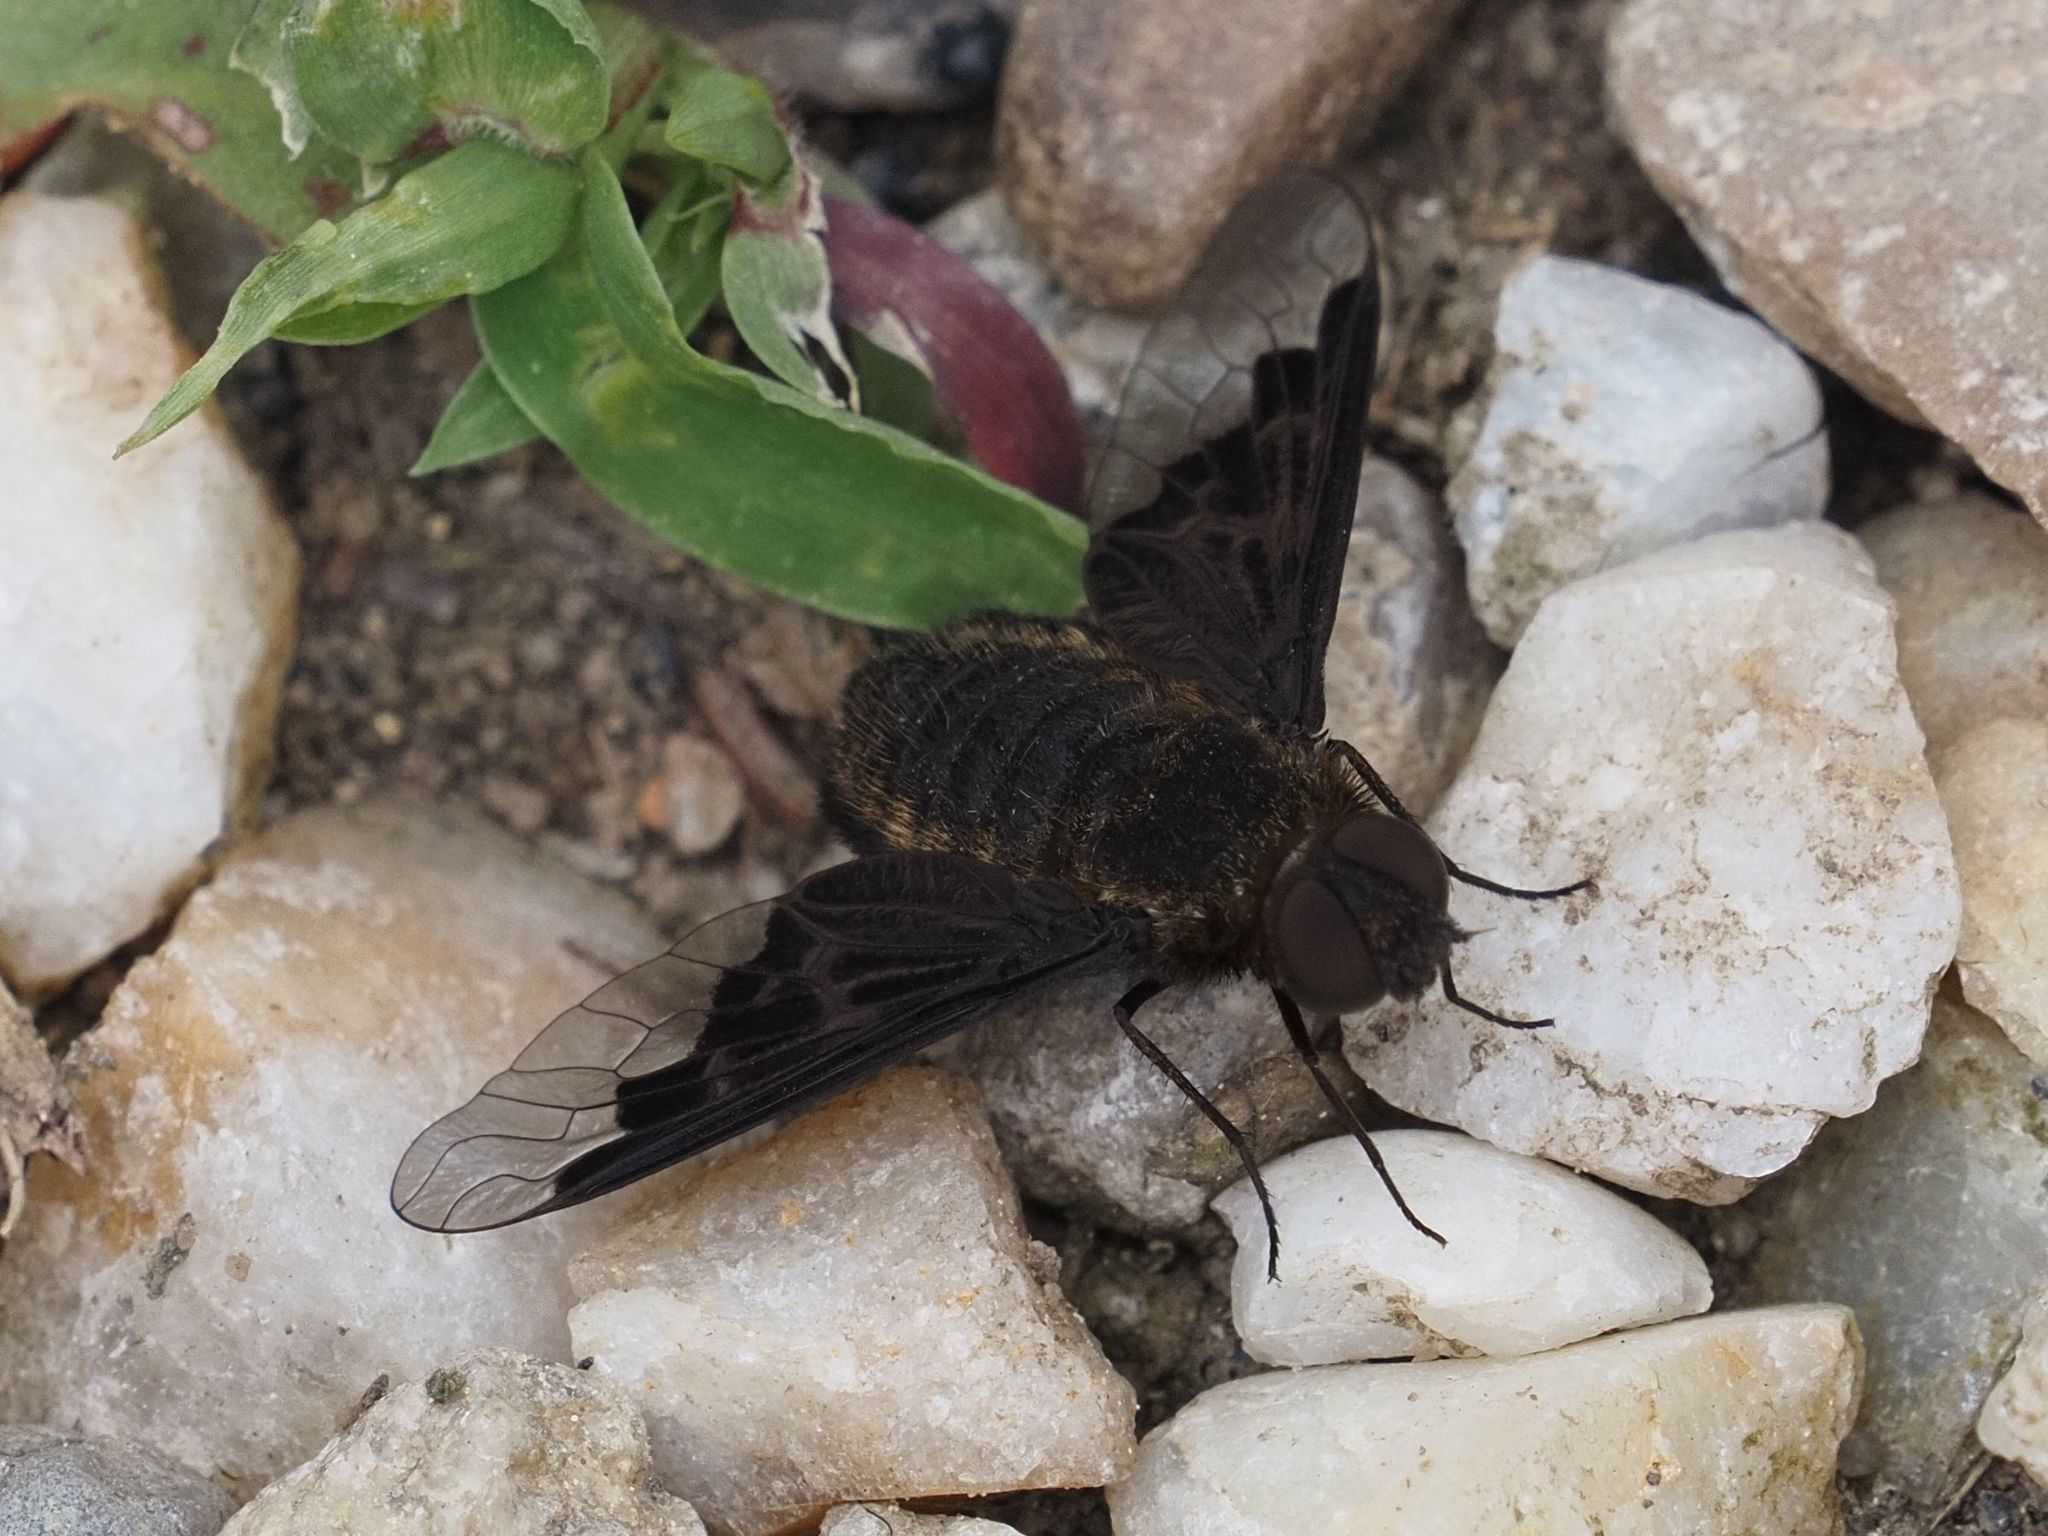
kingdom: Animalia
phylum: Arthropoda
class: Insecta
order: Diptera
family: Bombyliidae
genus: Hemipenthes
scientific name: Hemipenthes morio
